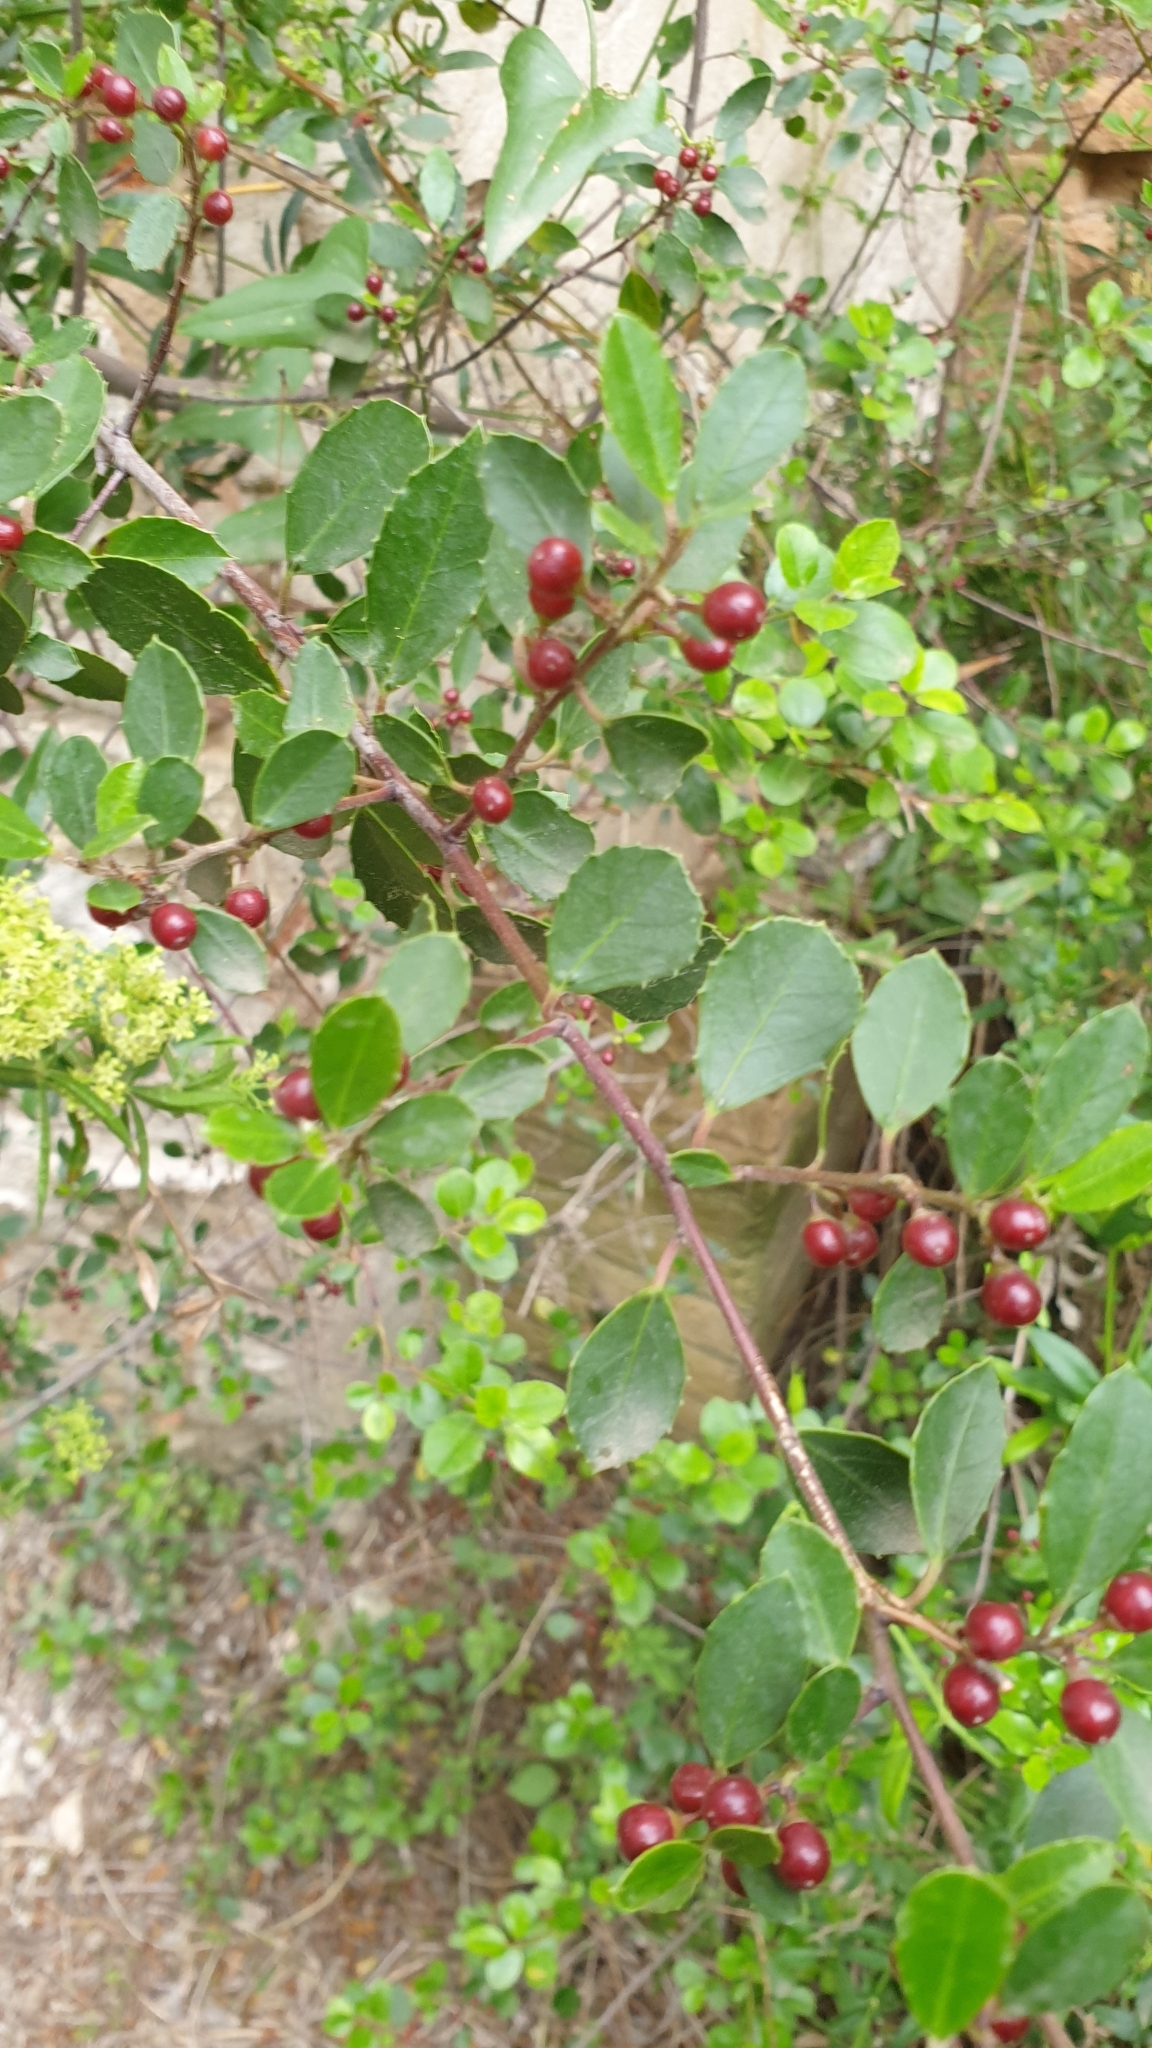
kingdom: Plantae
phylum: Tracheophyta
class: Magnoliopsida
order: Rosales
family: Rhamnaceae
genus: Rhamnus
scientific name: Rhamnus alaternus
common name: Mediterranean buckthorn
